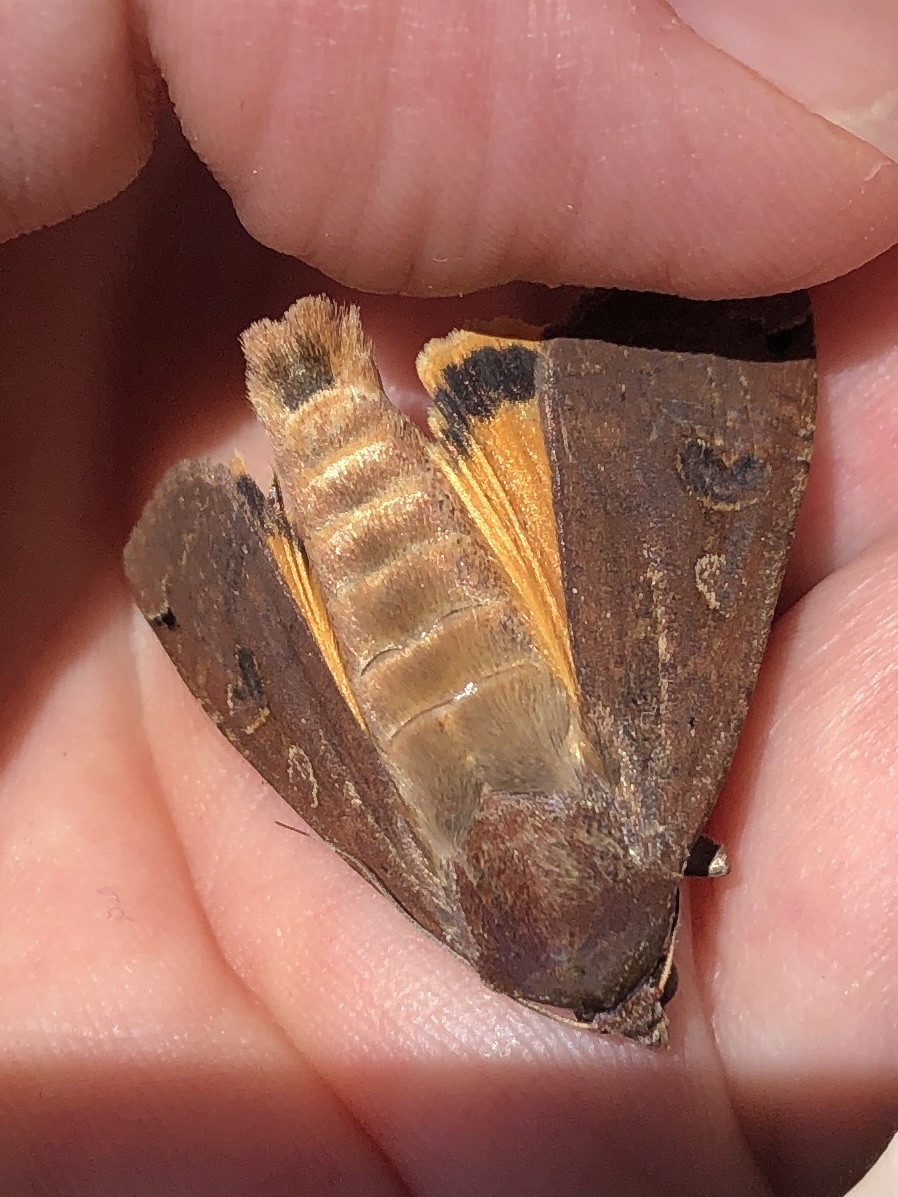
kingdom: Animalia
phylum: Arthropoda
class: Insecta
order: Lepidoptera
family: Noctuidae
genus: Noctua
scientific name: Noctua pronuba
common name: Large yellow underwing
